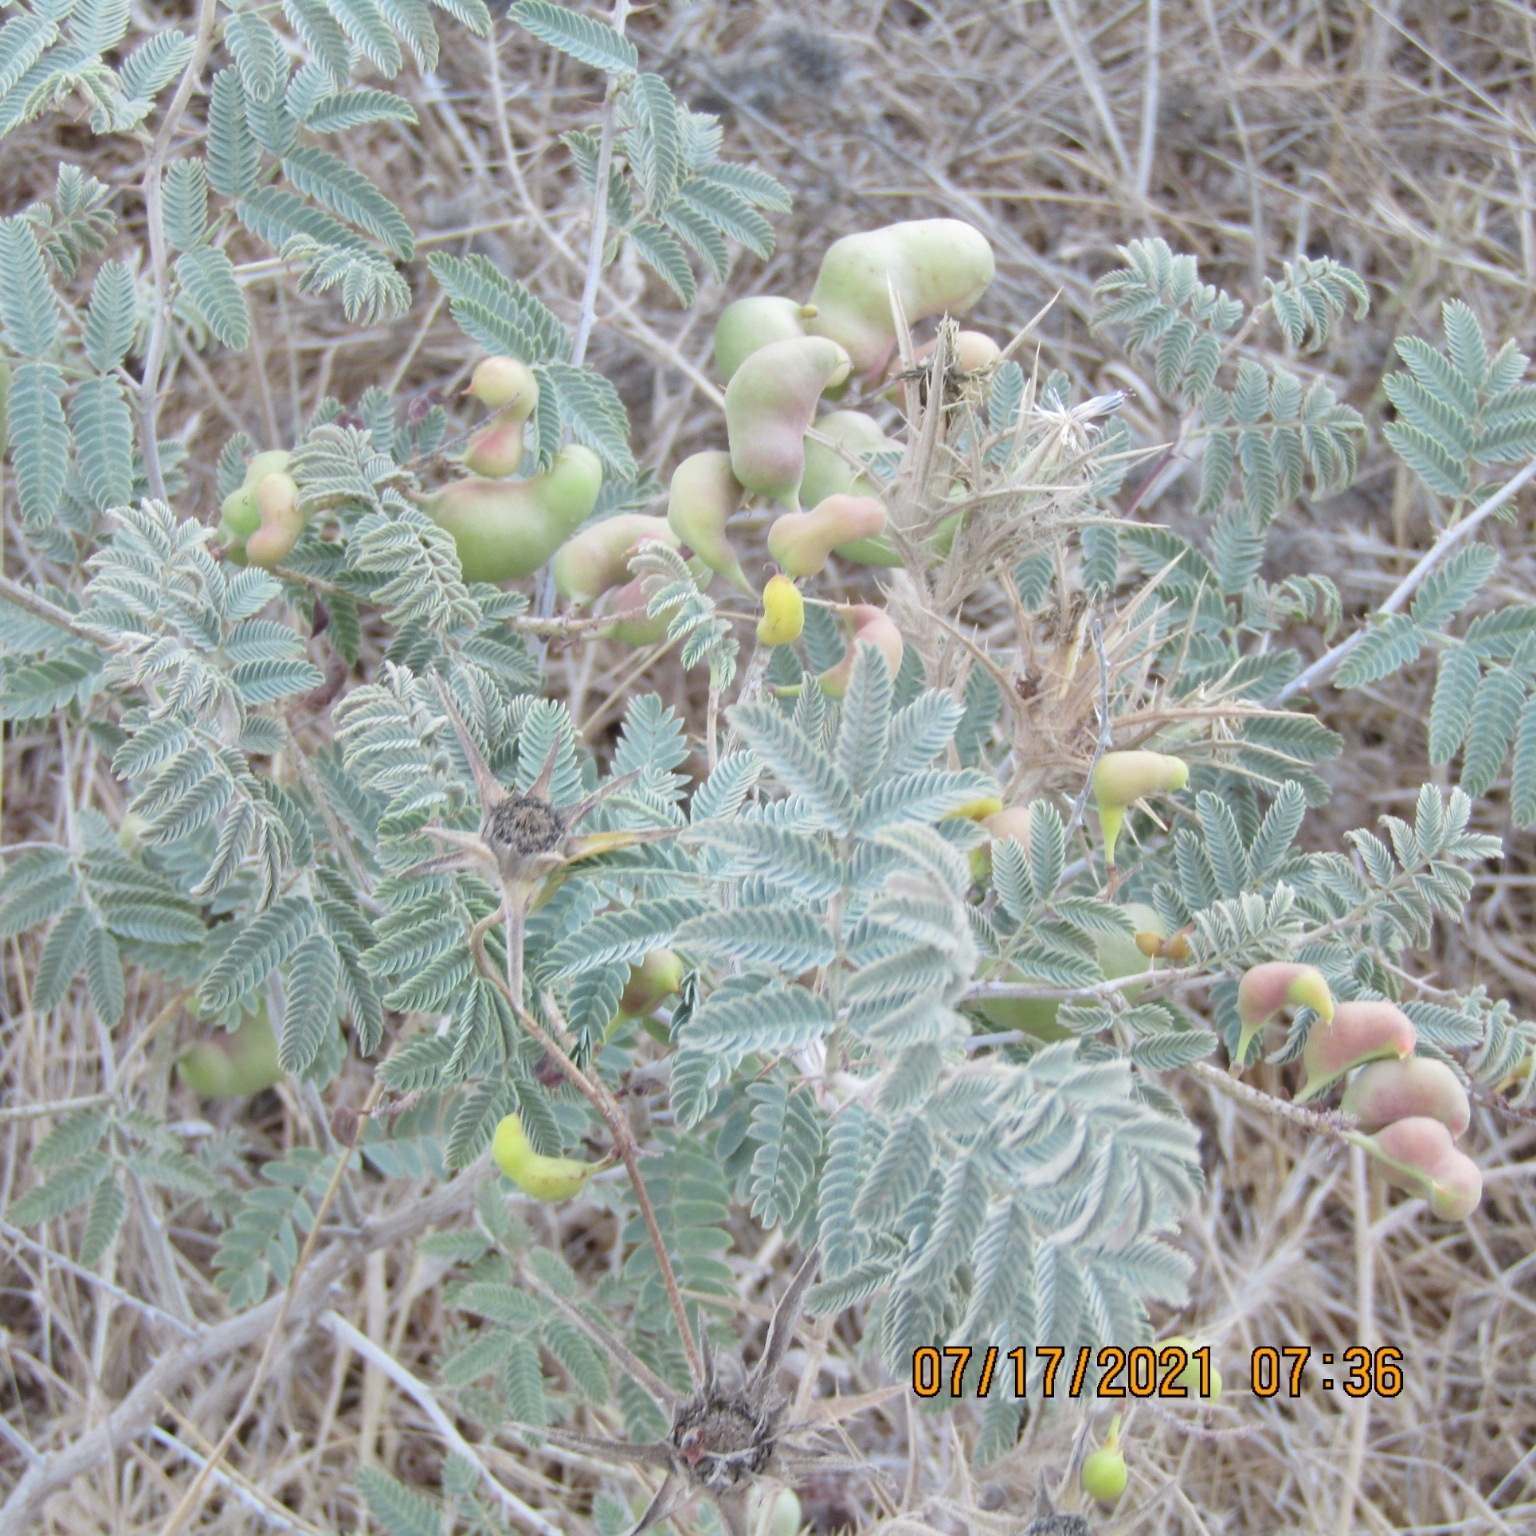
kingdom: Plantae
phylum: Tracheophyta
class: Magnoliopsida
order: Fabales
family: Fabaceae
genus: Prosopis
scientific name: Prosopis farcta
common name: Syrian mesquite
